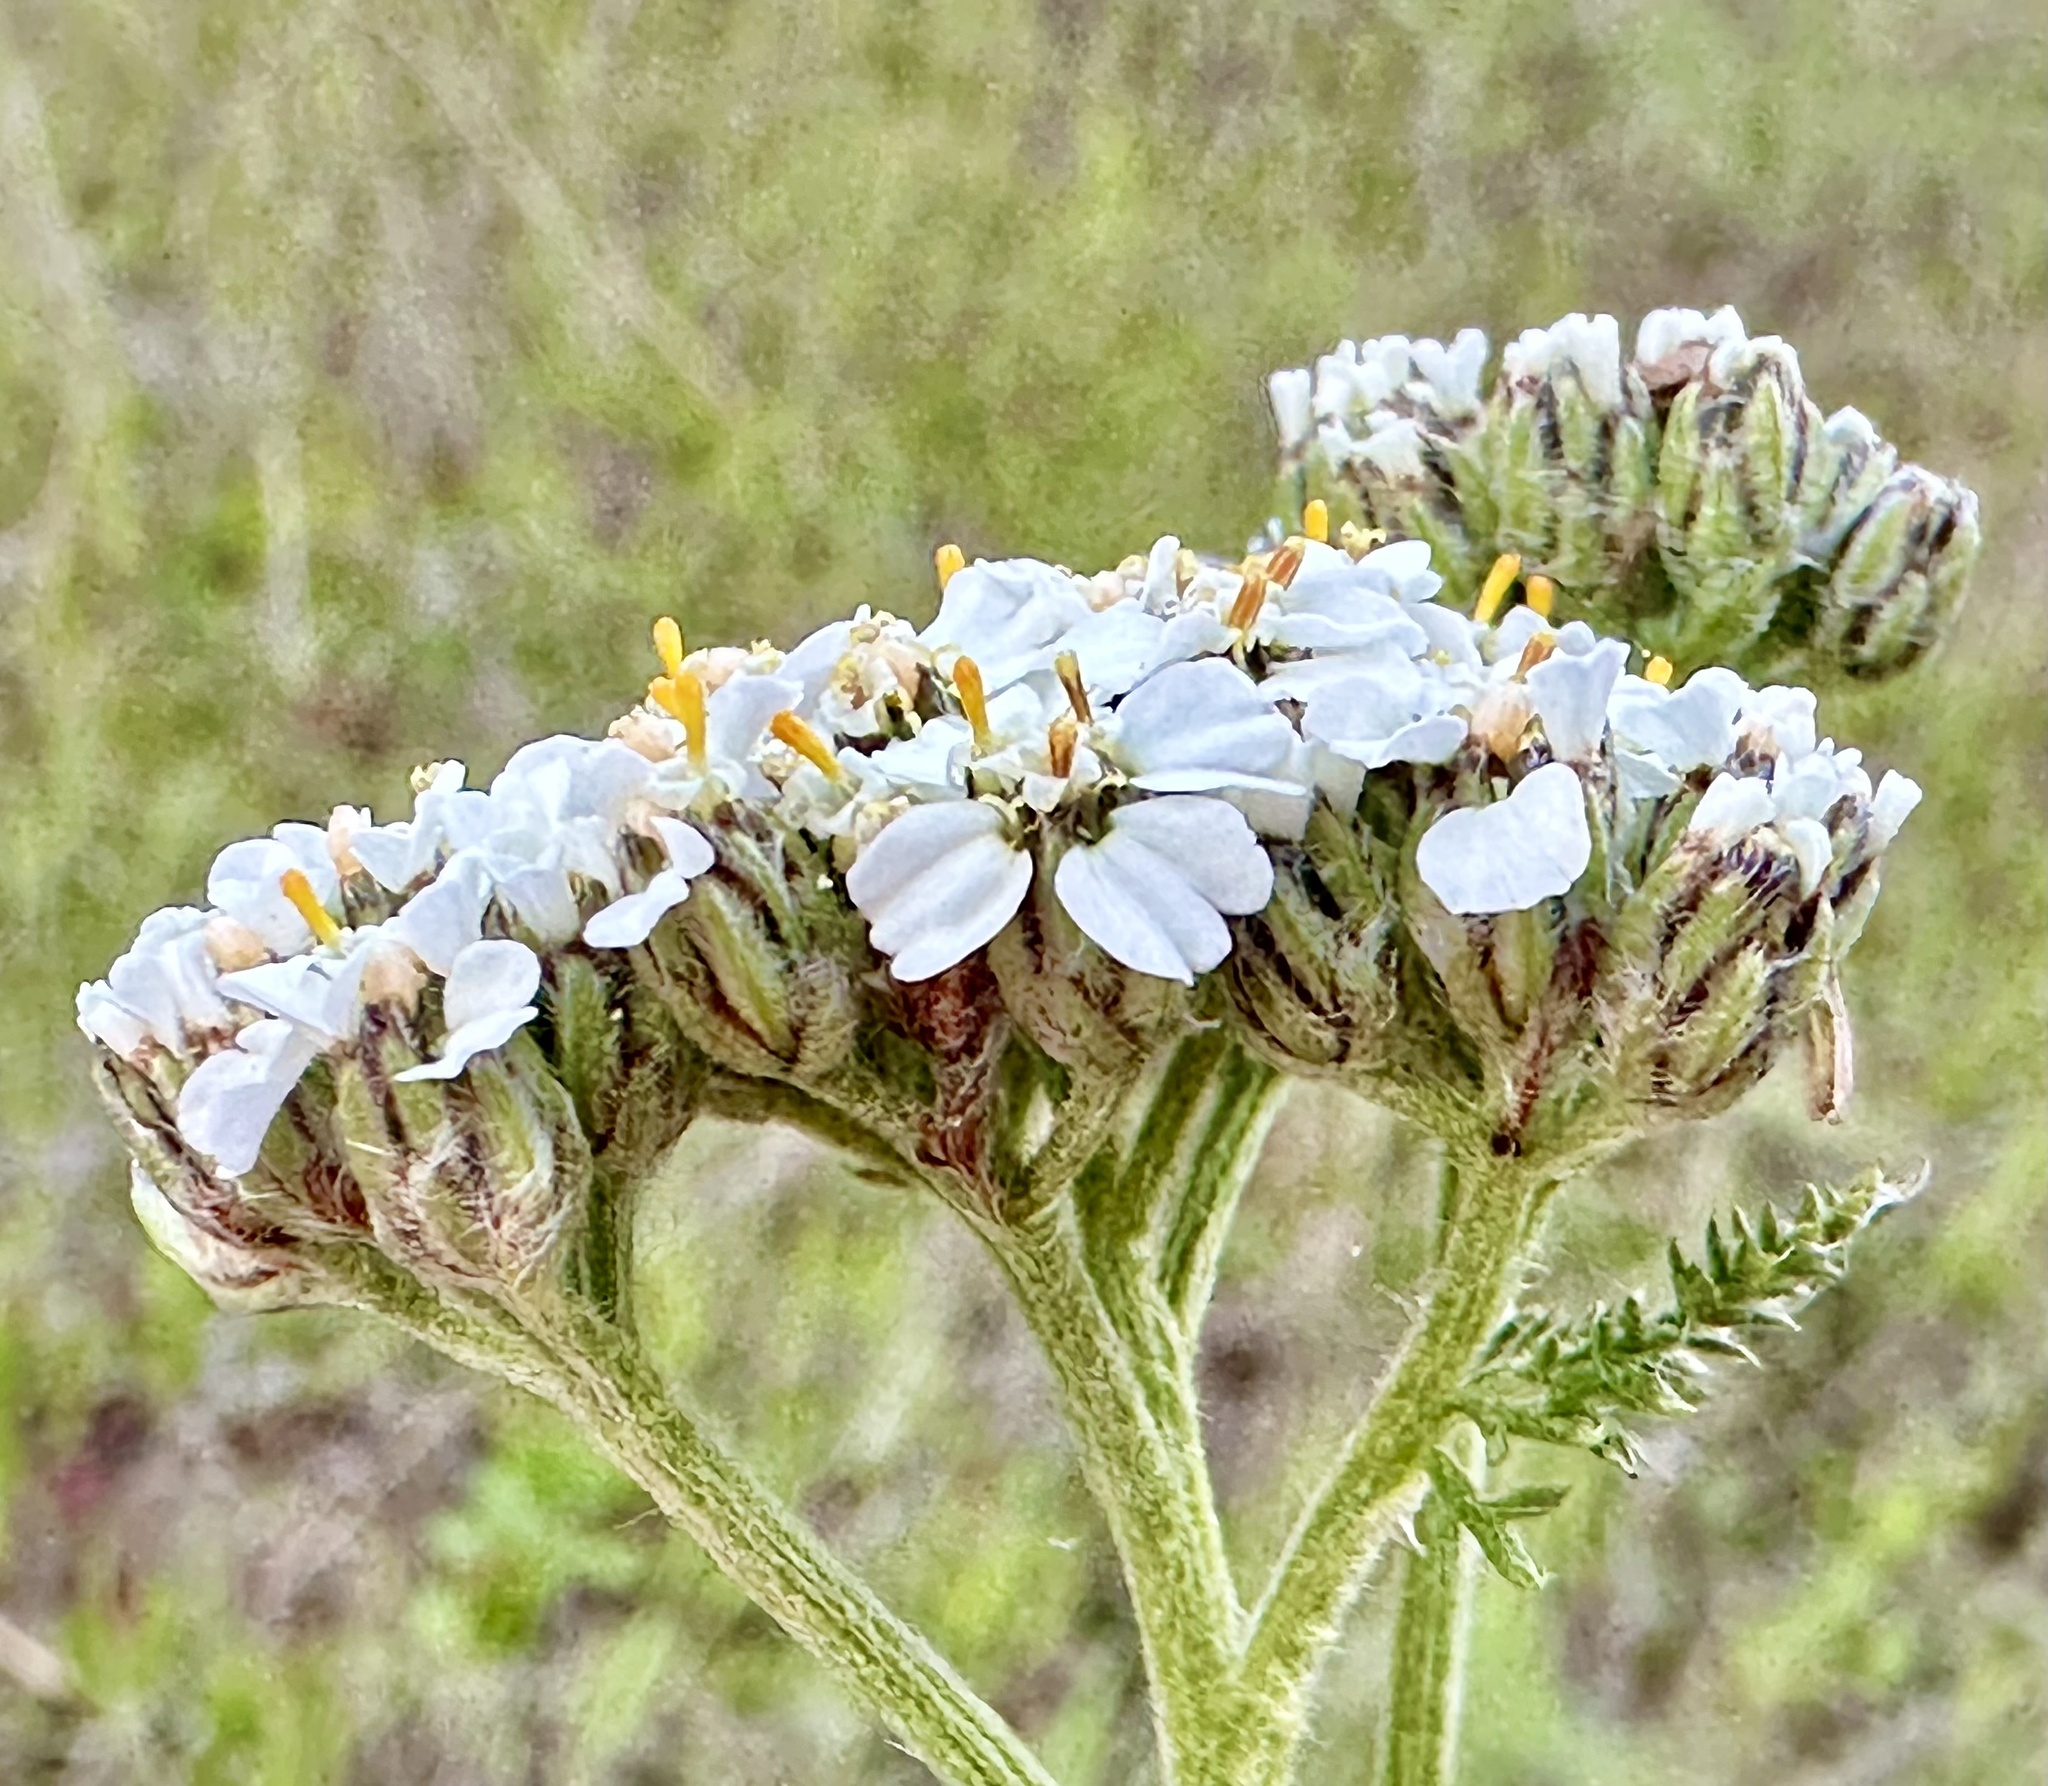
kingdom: Plantae
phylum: Tracheophyta
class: Magnoliopsida
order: Asterales
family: Asteraceae
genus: Achillea
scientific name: Achillea millefolium
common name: Yarrow
